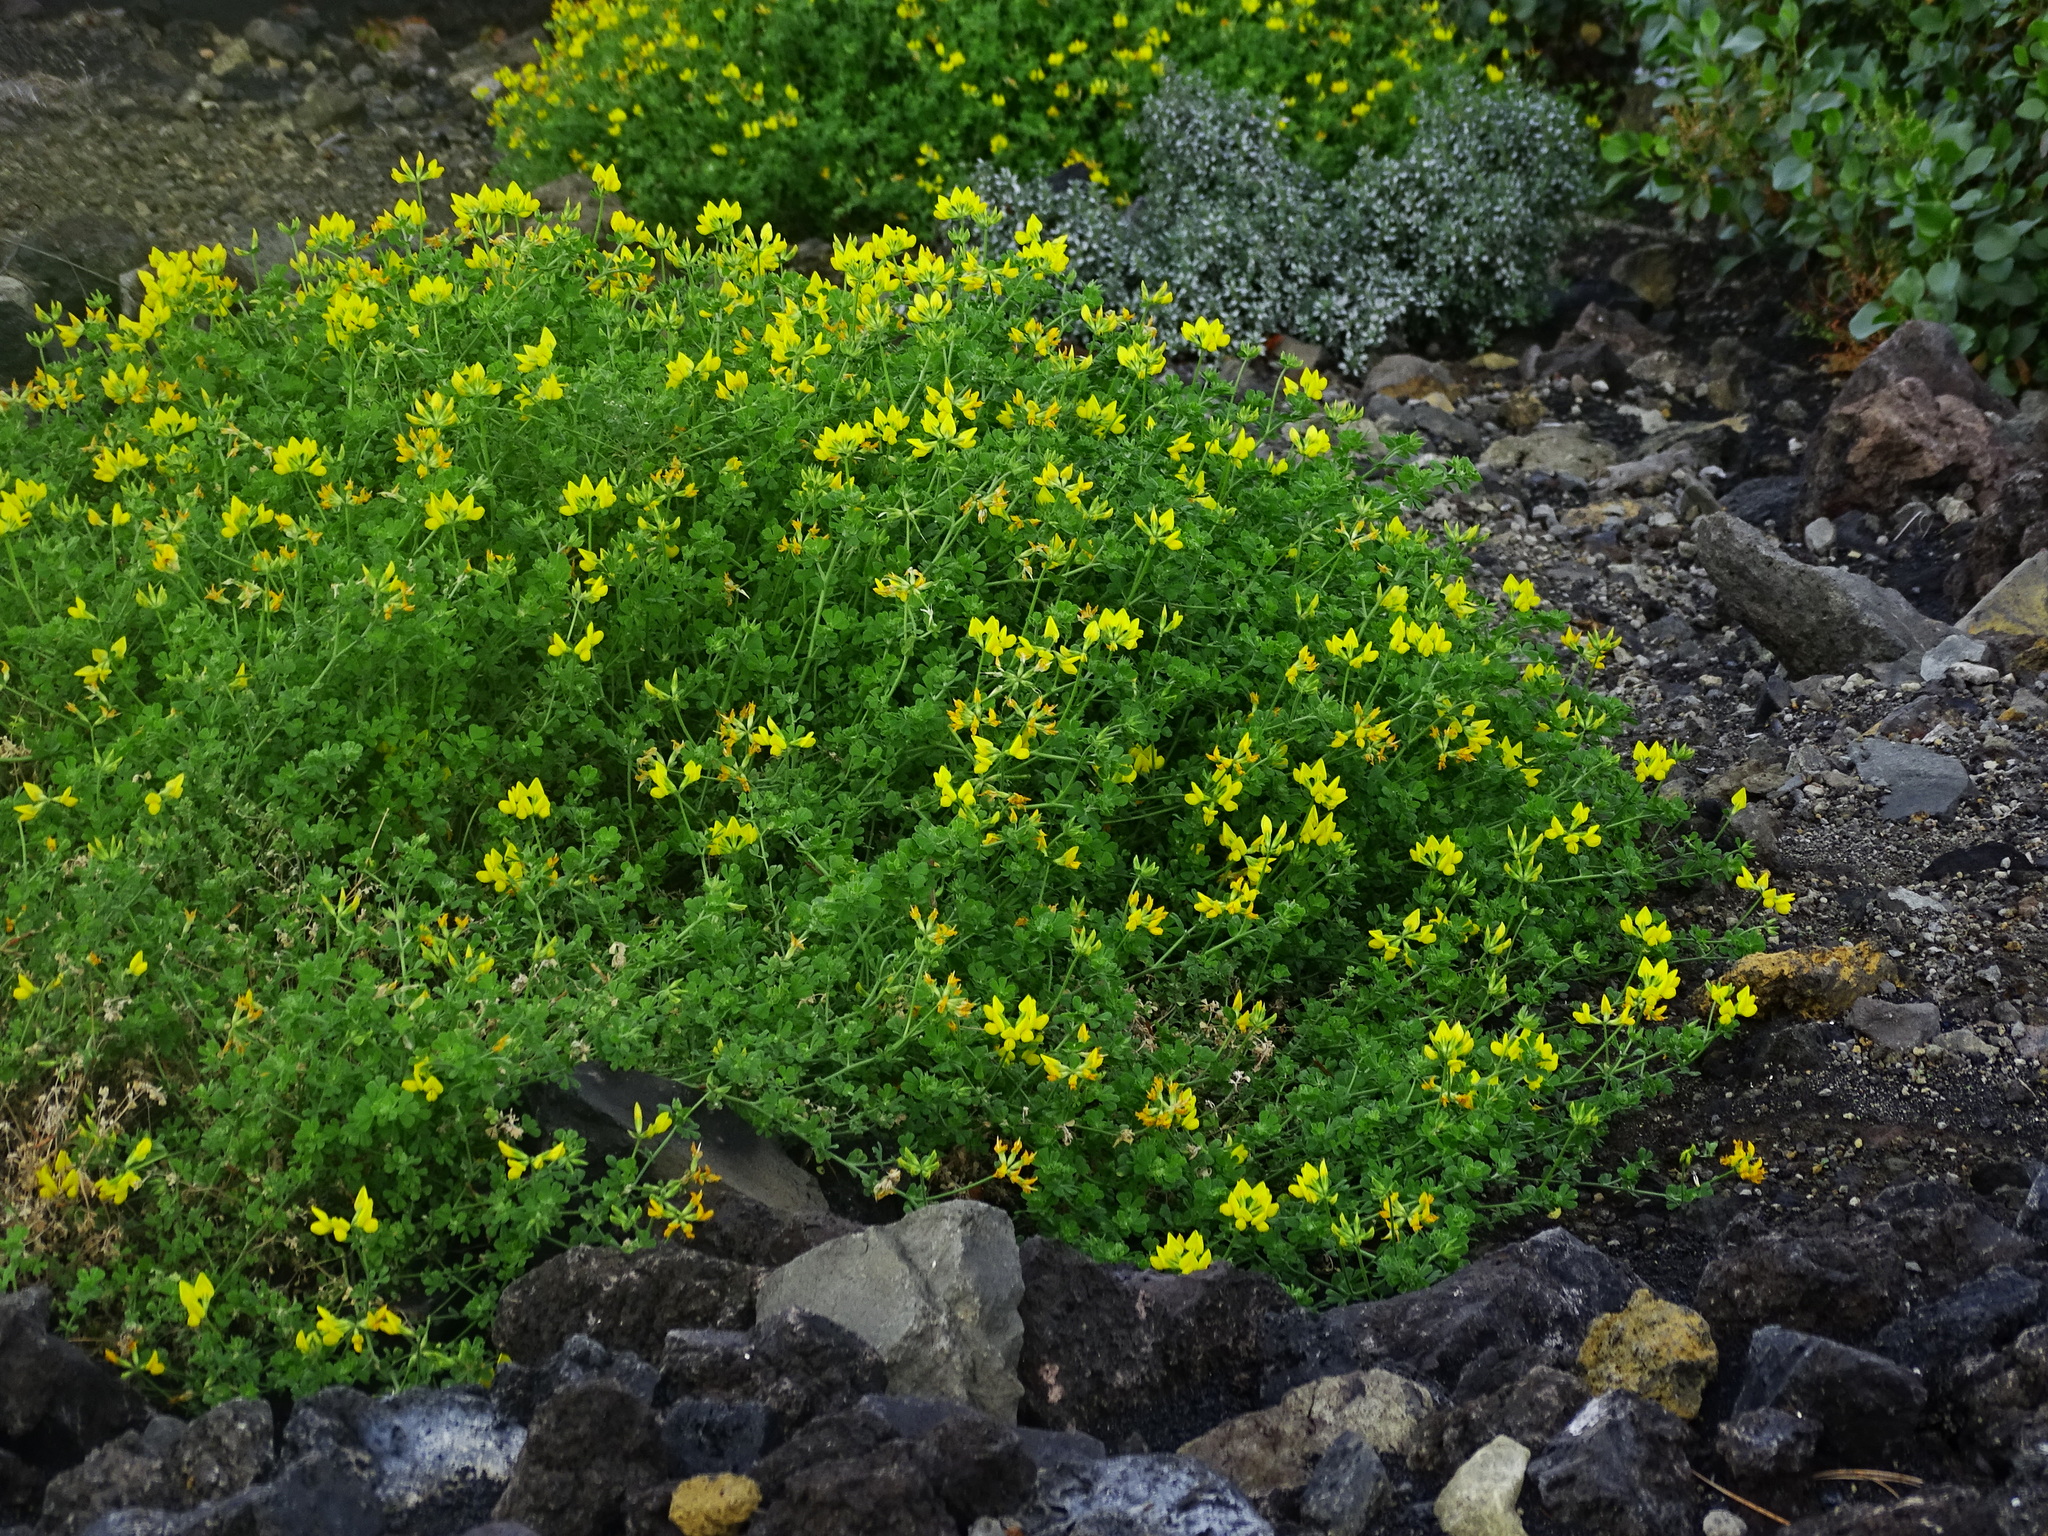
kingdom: Plantae
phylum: Tracheophyta
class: Magnoliopsida
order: Fabales
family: Fabaceae
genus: Lotus
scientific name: Lotus campylocladus
